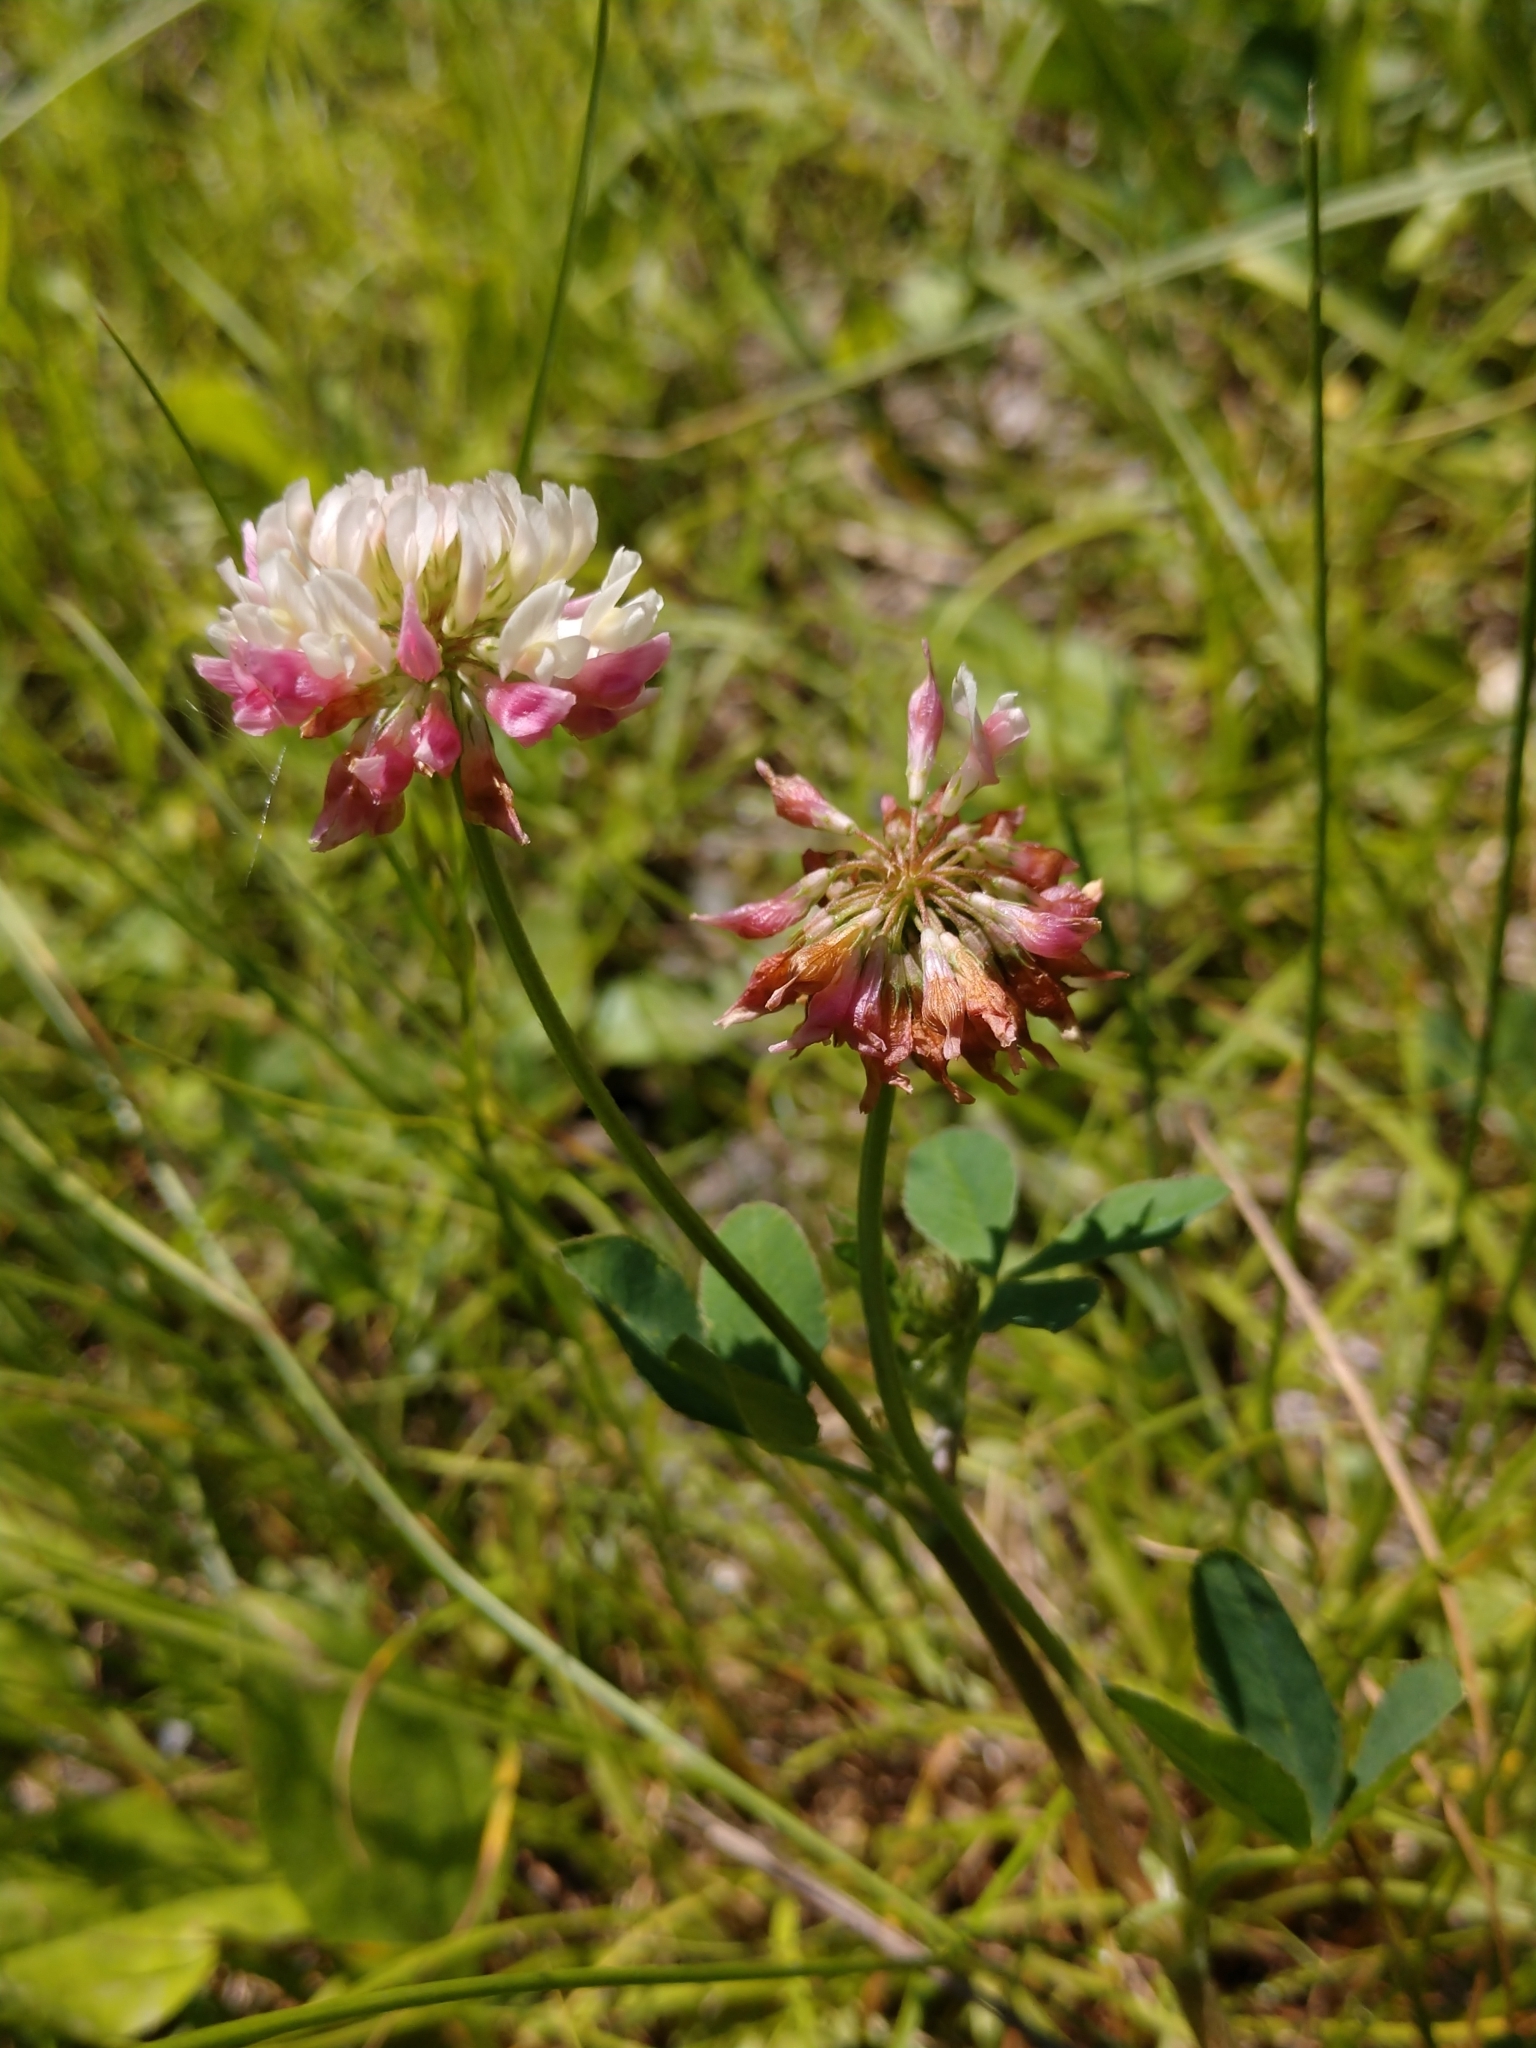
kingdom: Plantae
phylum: Tracheophyta
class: Magnoliopsida
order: Fabales
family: Fabaceae
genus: Trifolium
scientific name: Trifolium hybridum
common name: Alsike clover
